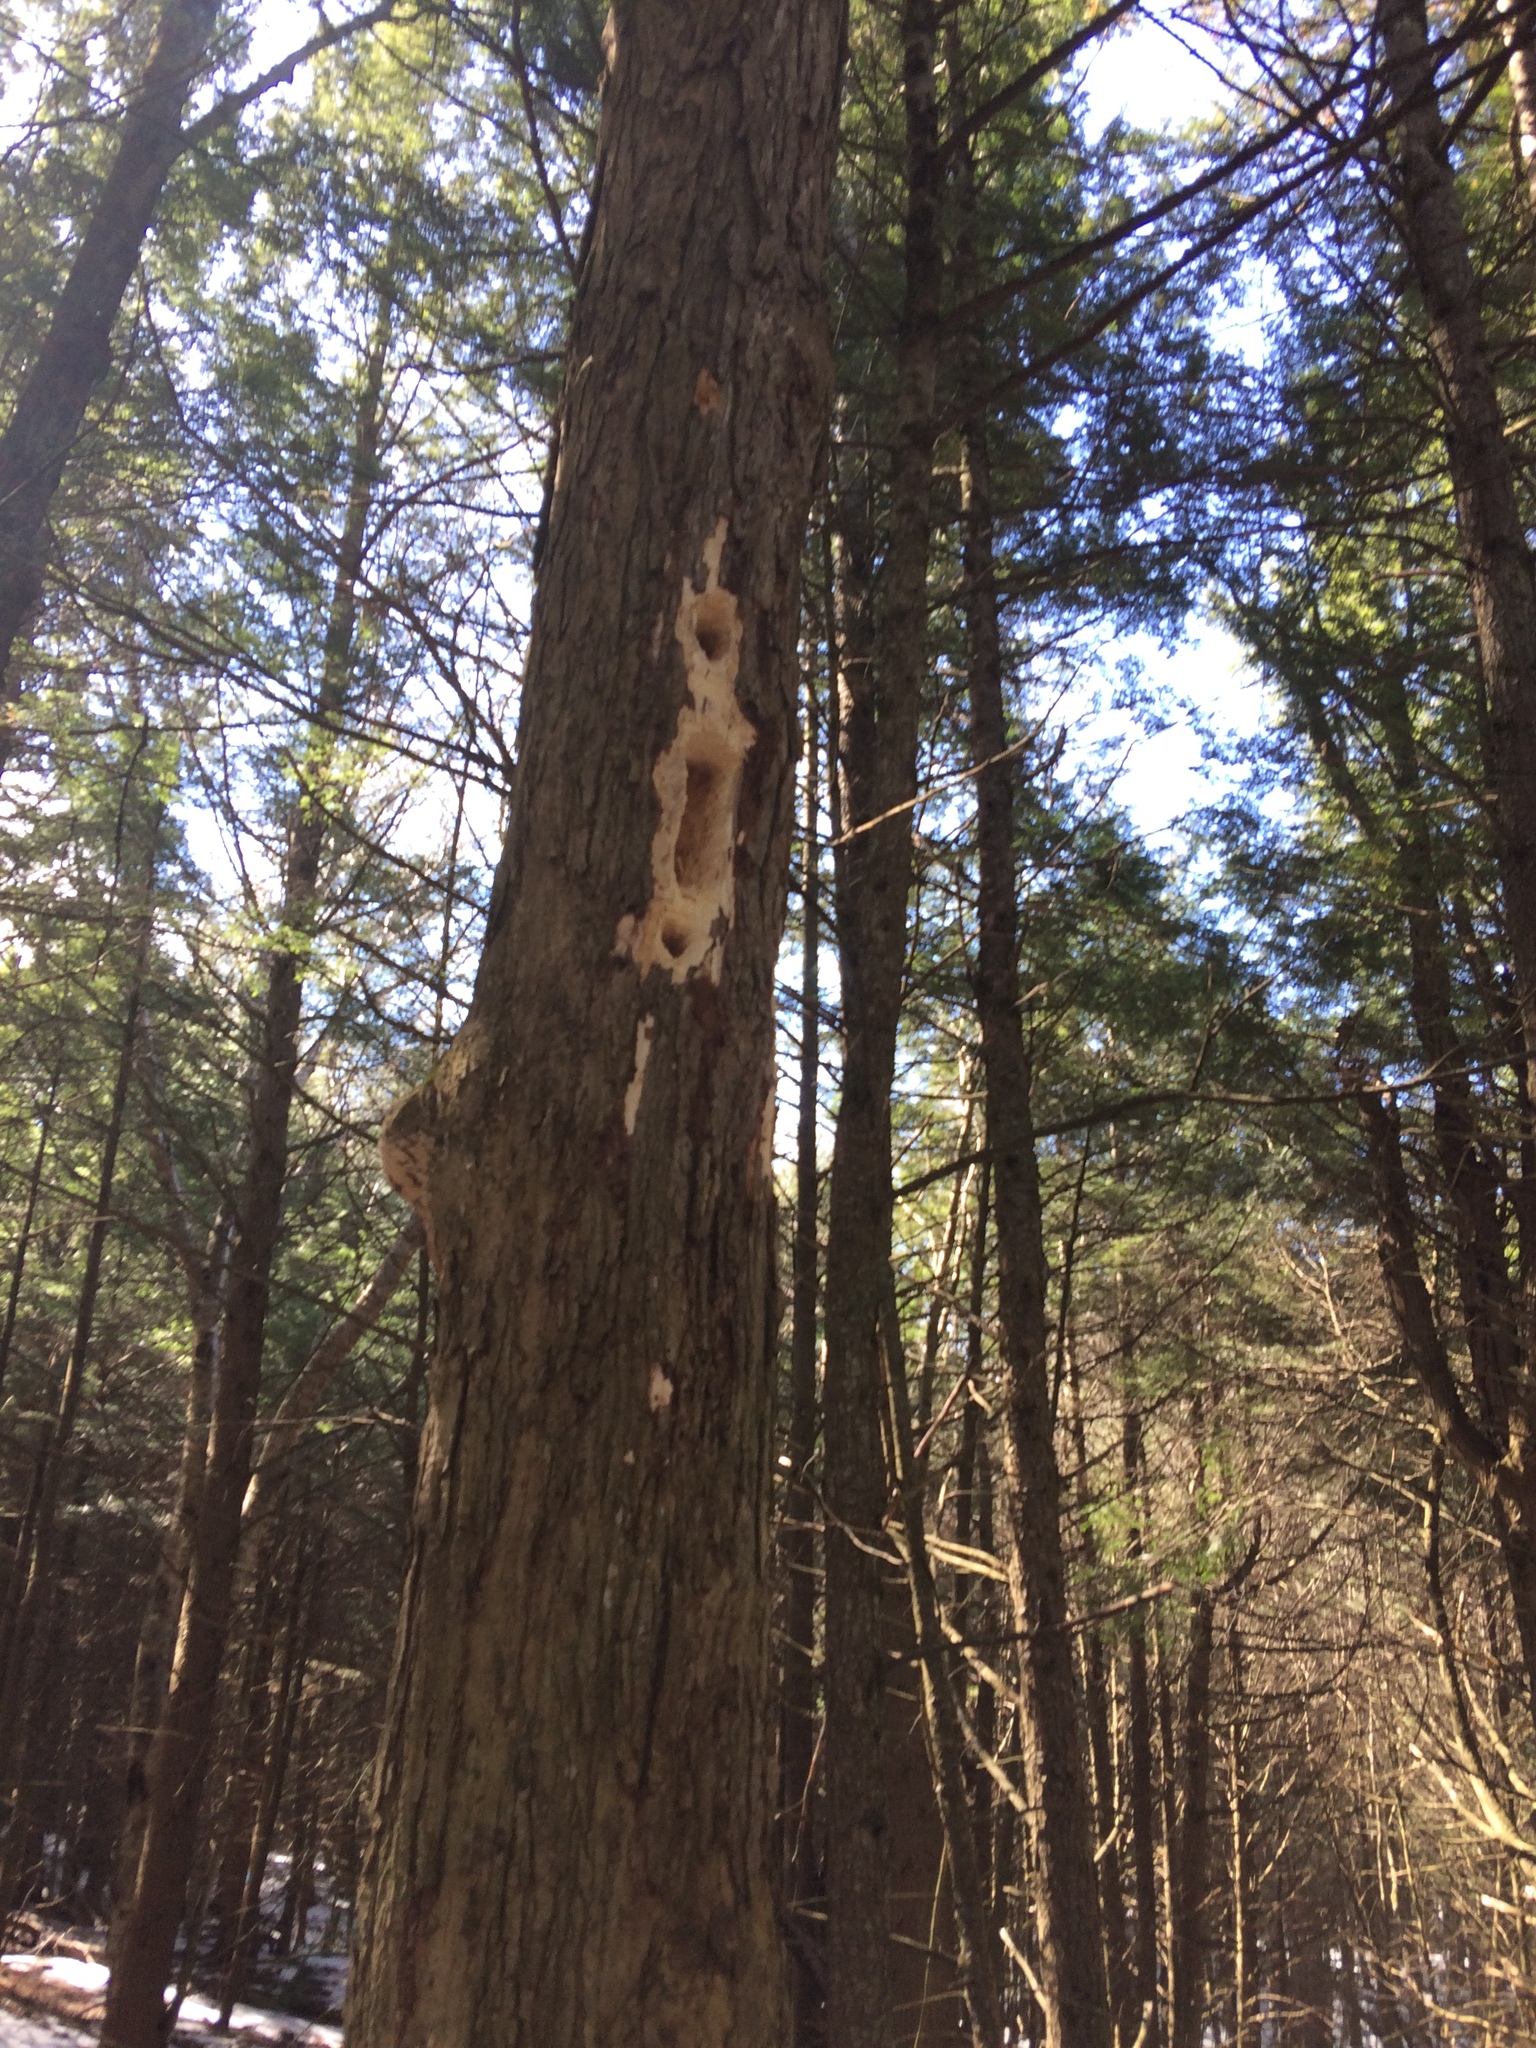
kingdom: Animalia
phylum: Chordata
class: Aves
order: Piciformes
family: Picidae
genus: Dryocopus
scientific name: Dryocopus pileatus
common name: Pileated woodpecker
